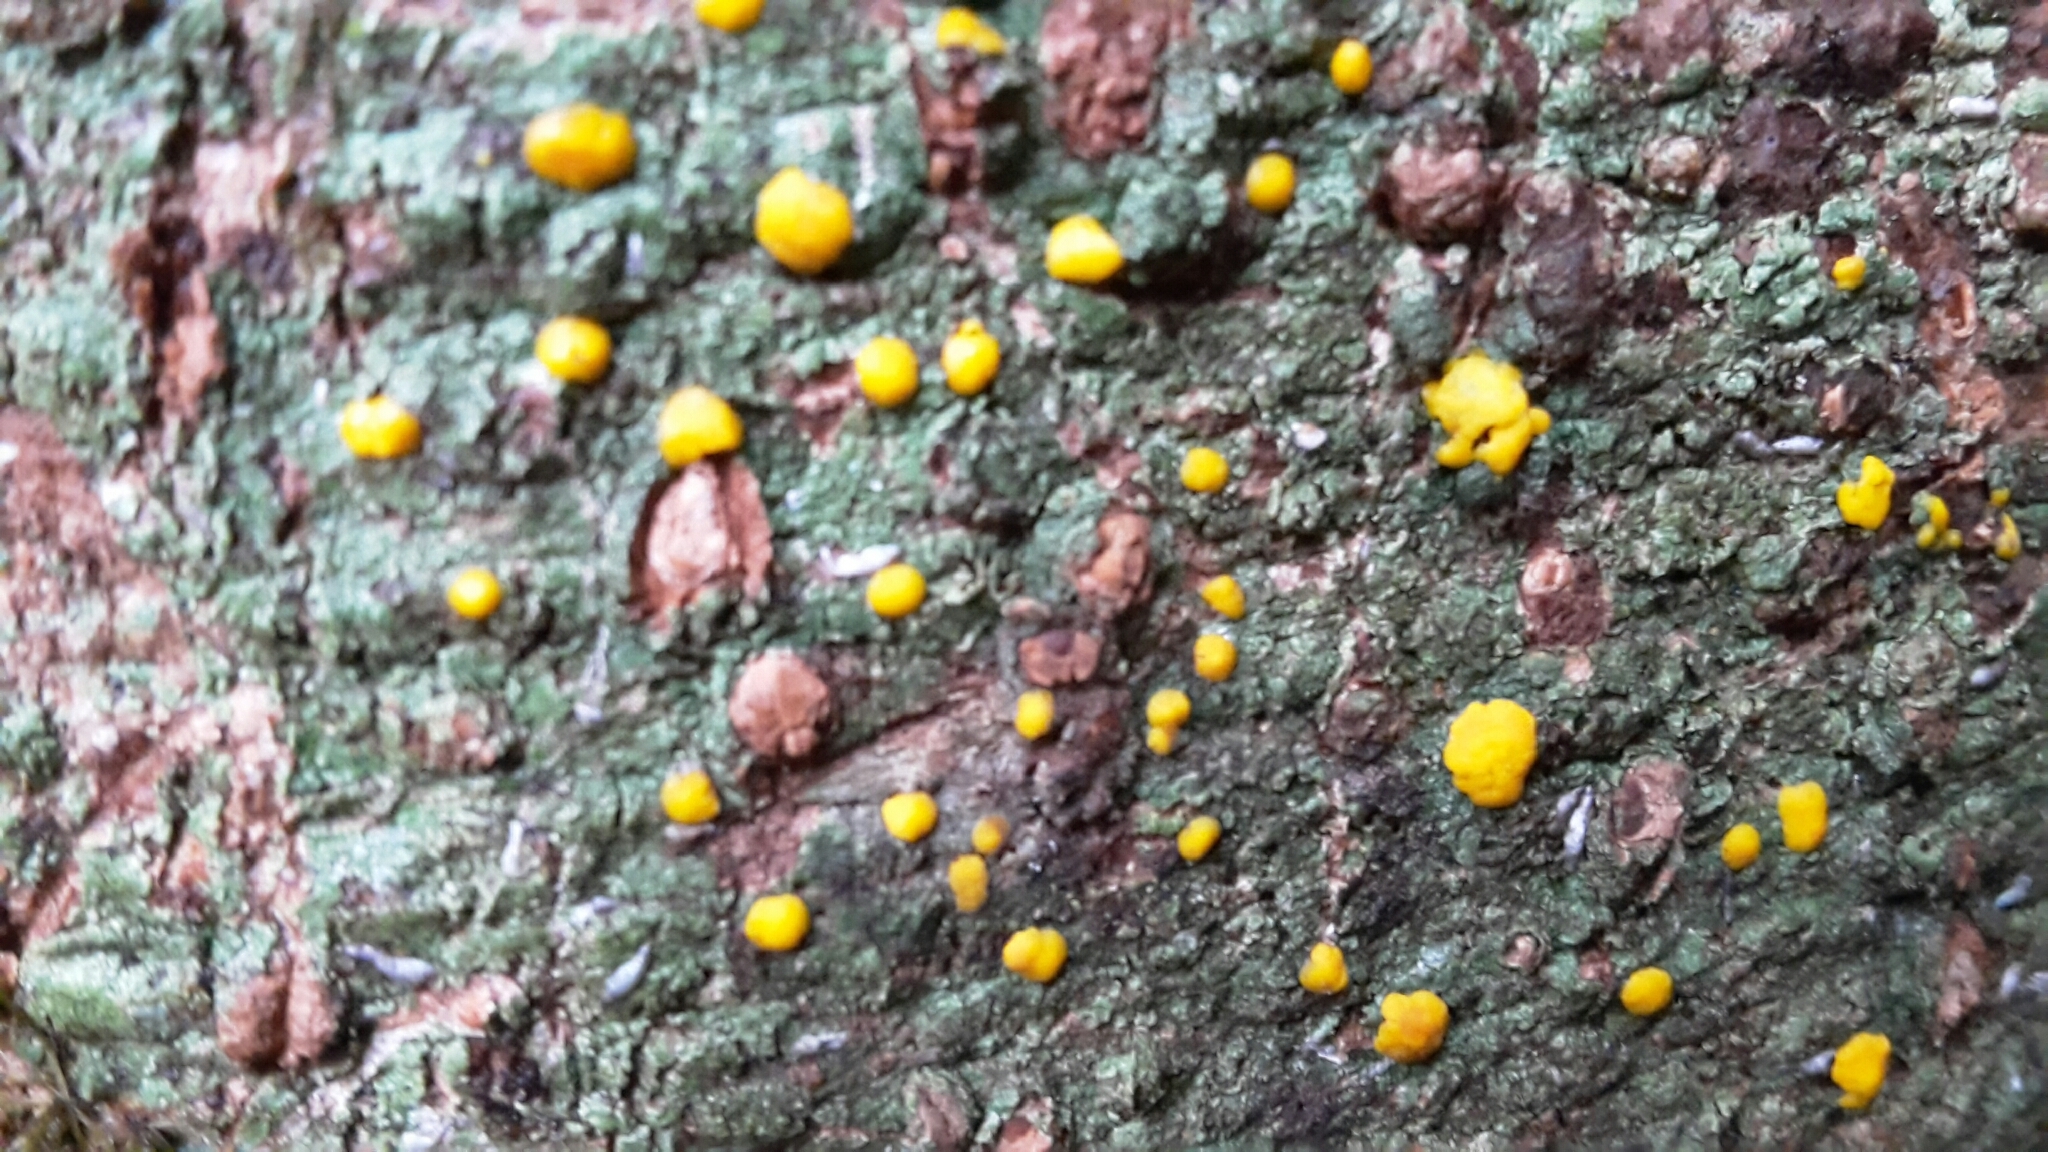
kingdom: Fungi
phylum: Ascomycota
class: Lecanoromycetes
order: Lecanorales
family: Ramalinaceae
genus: Stirtoniella
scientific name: Stirtoniella kelica
